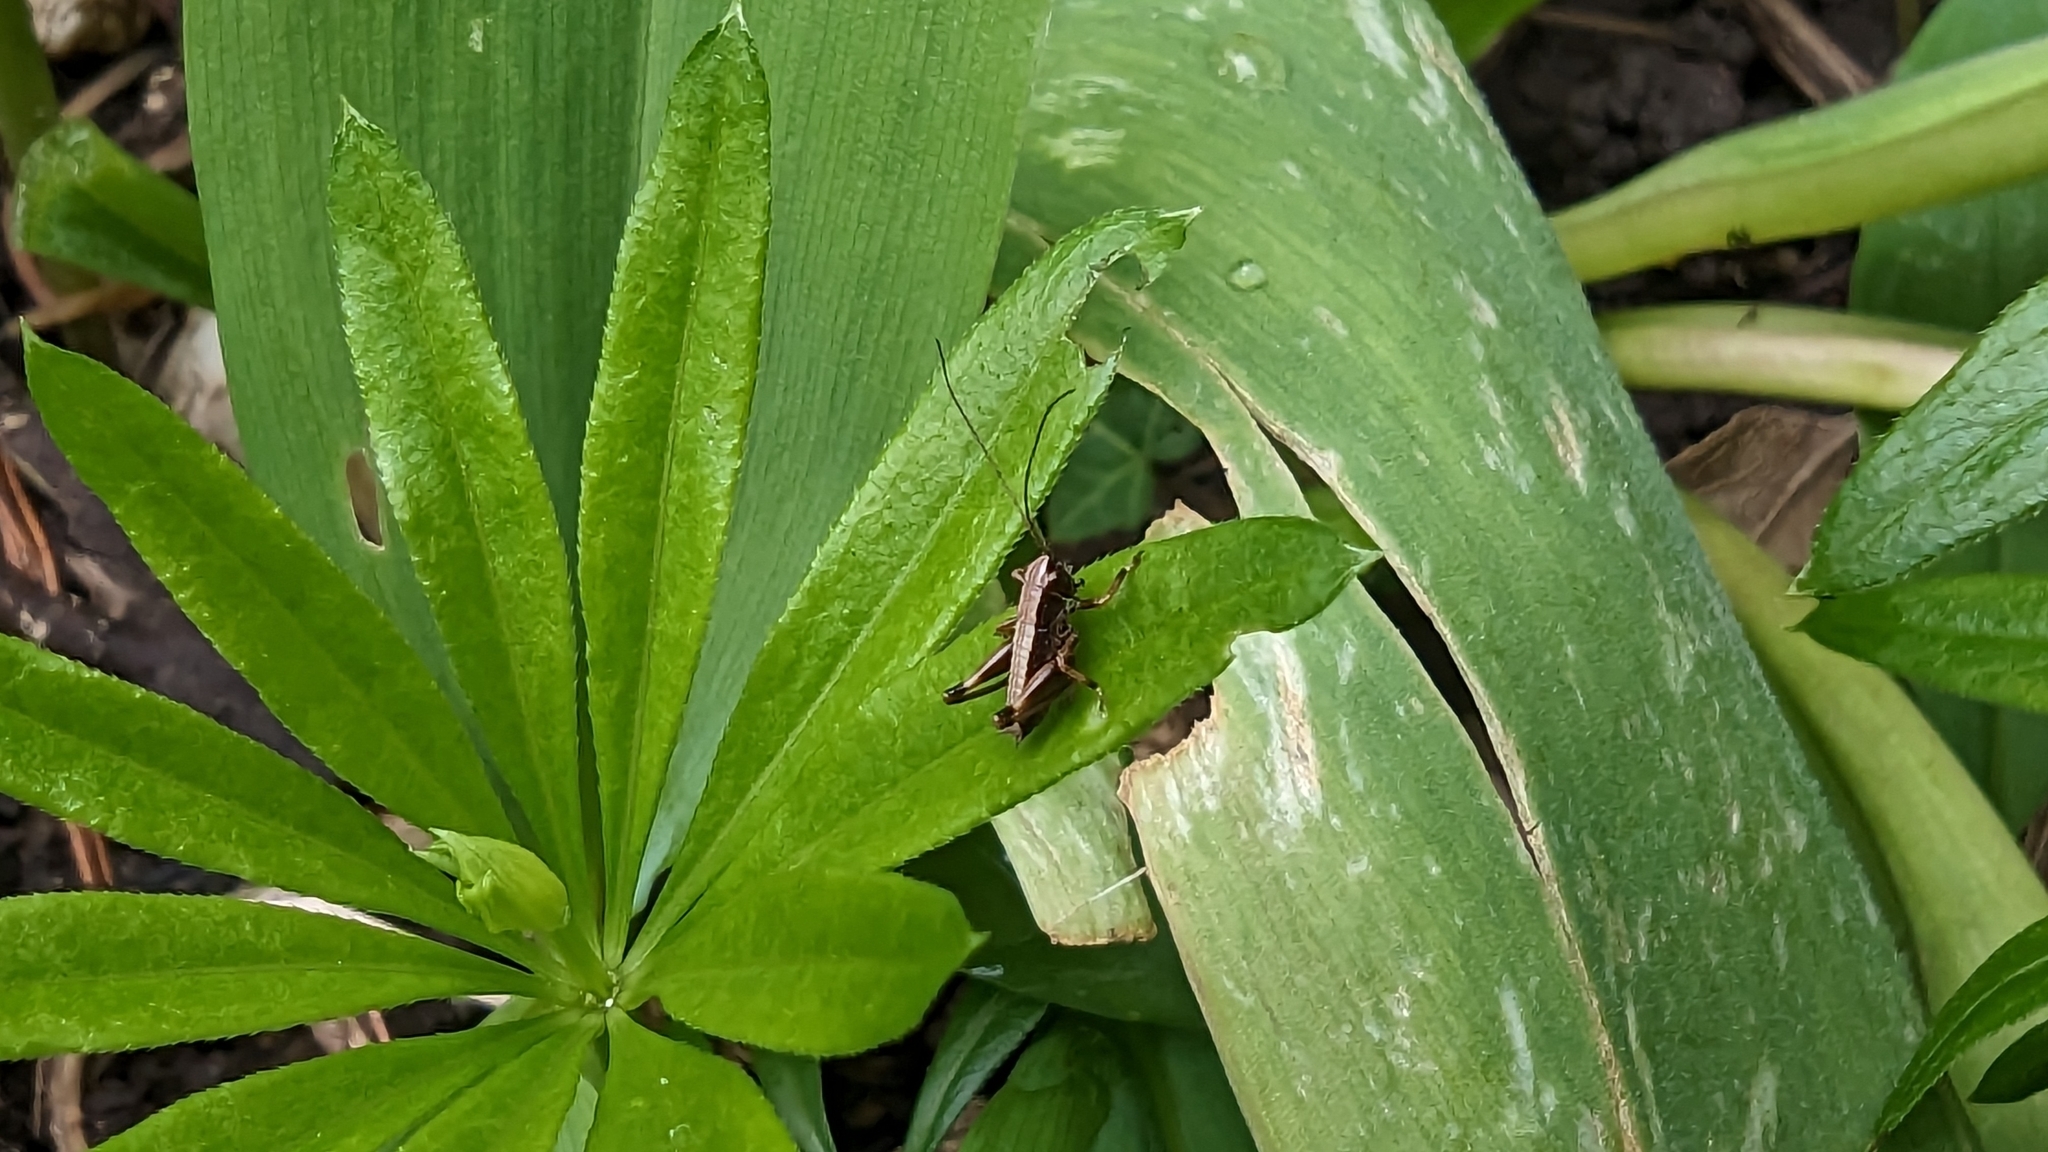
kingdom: Animalia
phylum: Arthropoda
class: Insecta
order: Orthoptera
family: Tettigoniidae
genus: Pholidoptera
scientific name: Pholidoptera griseoaptera
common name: Dark bush-cricket
